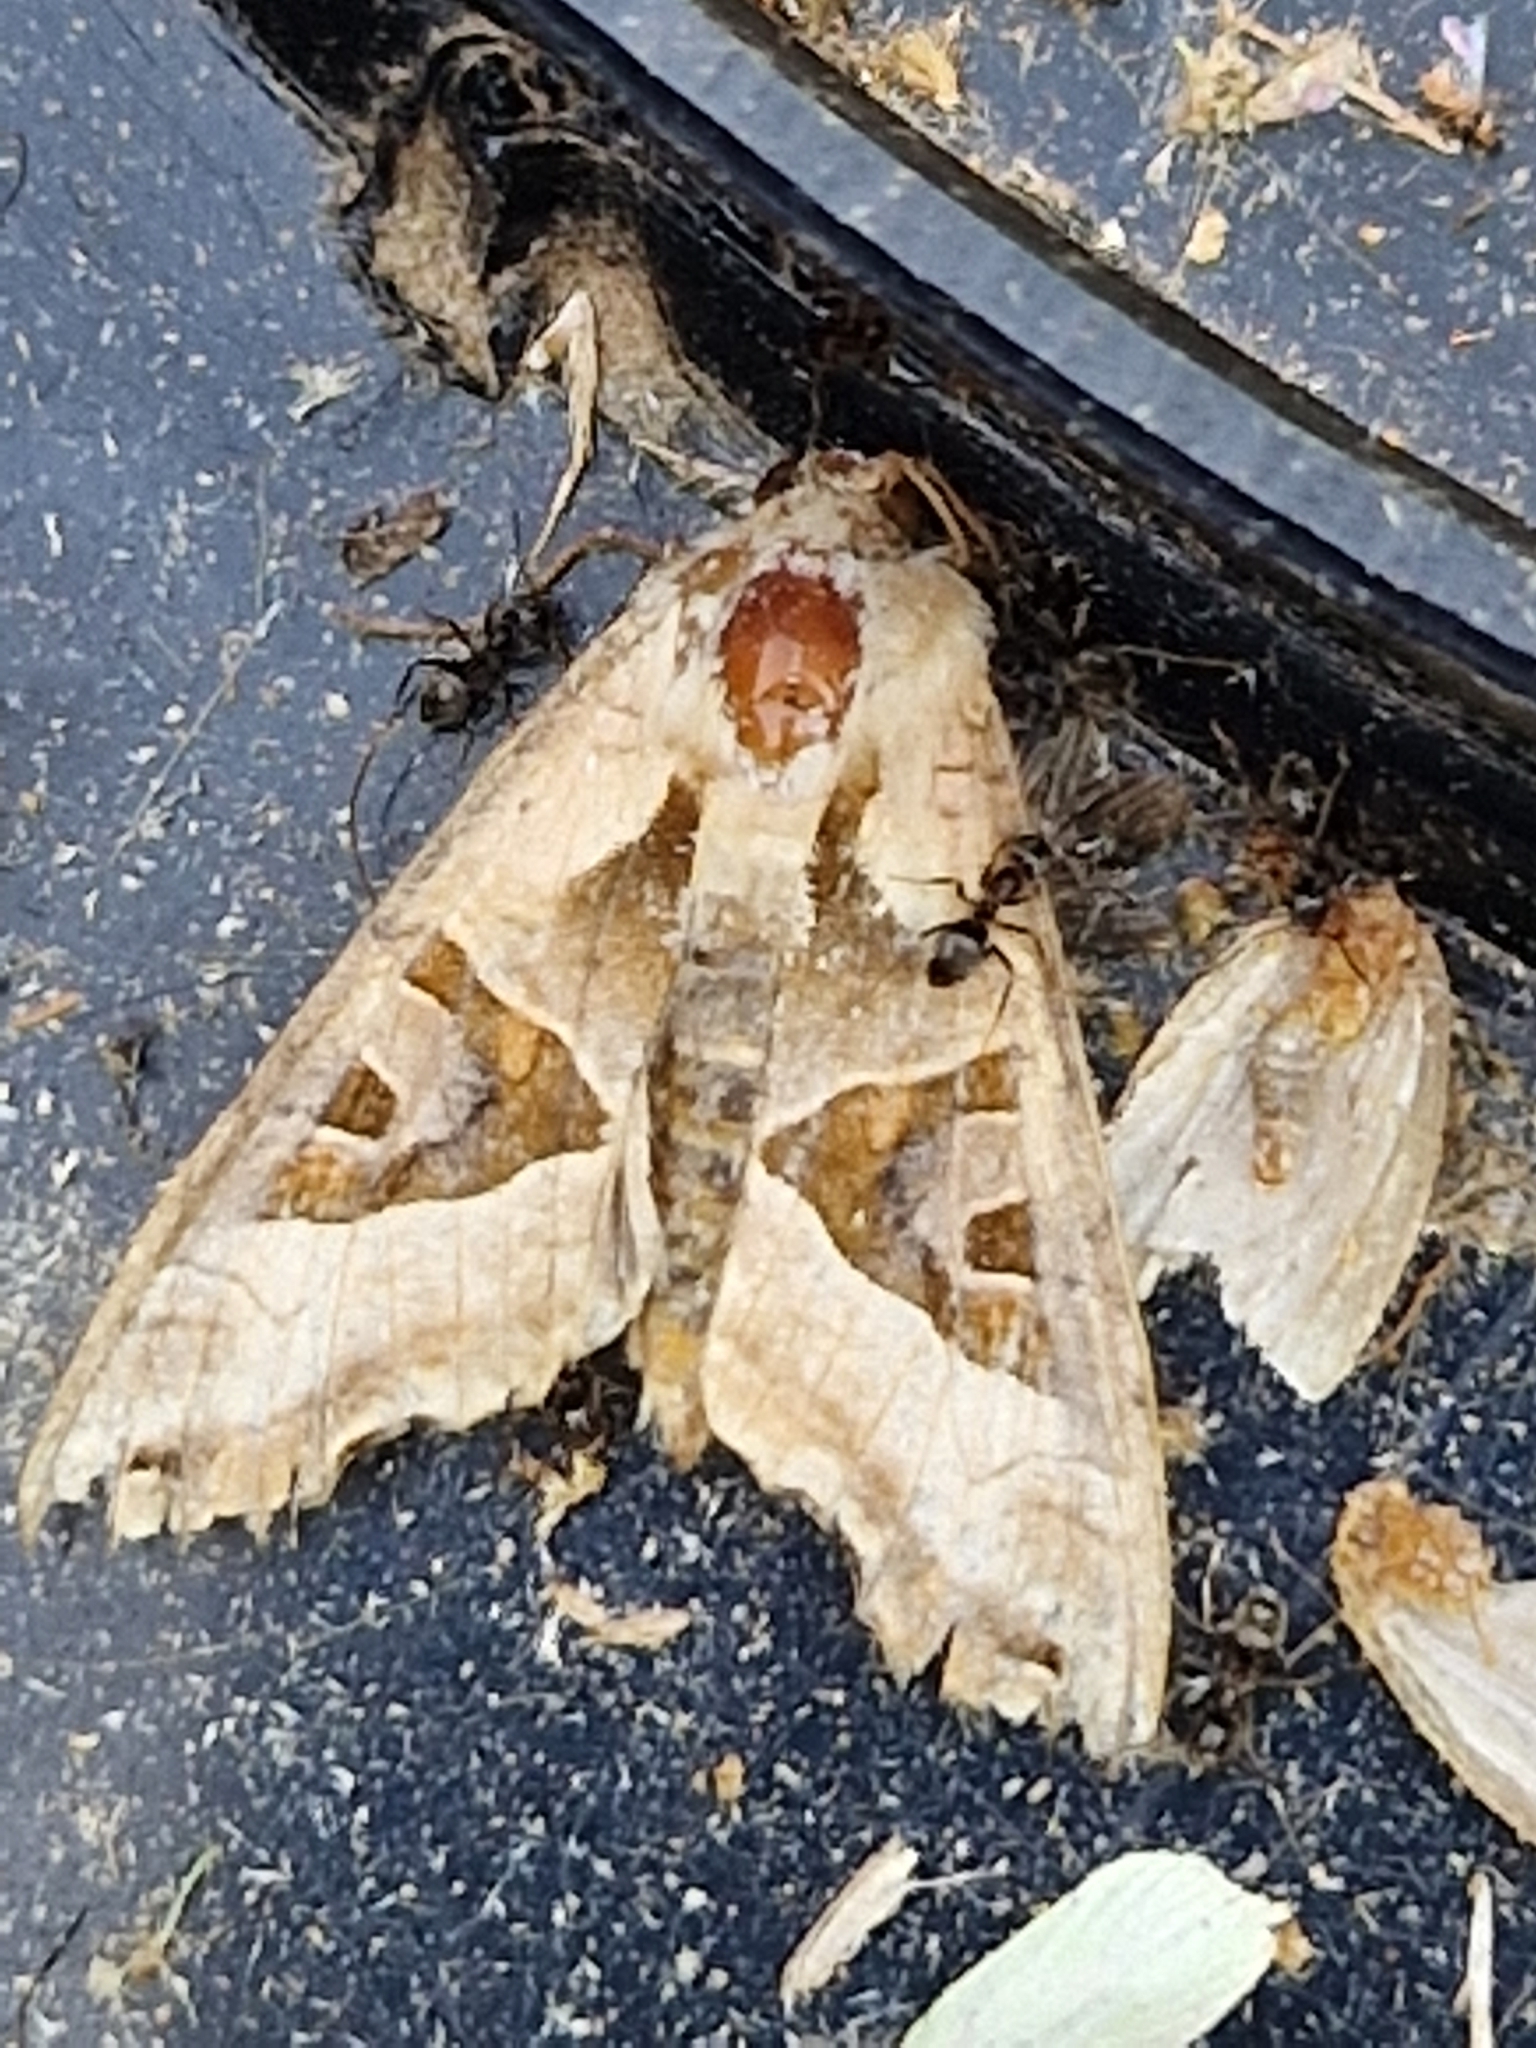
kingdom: Animalia
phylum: Arthropoda
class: Insecta
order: Lepidoptera
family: Noctuidae
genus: Phlogophora
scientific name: Phlogophora meticulosa
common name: Angle shades
